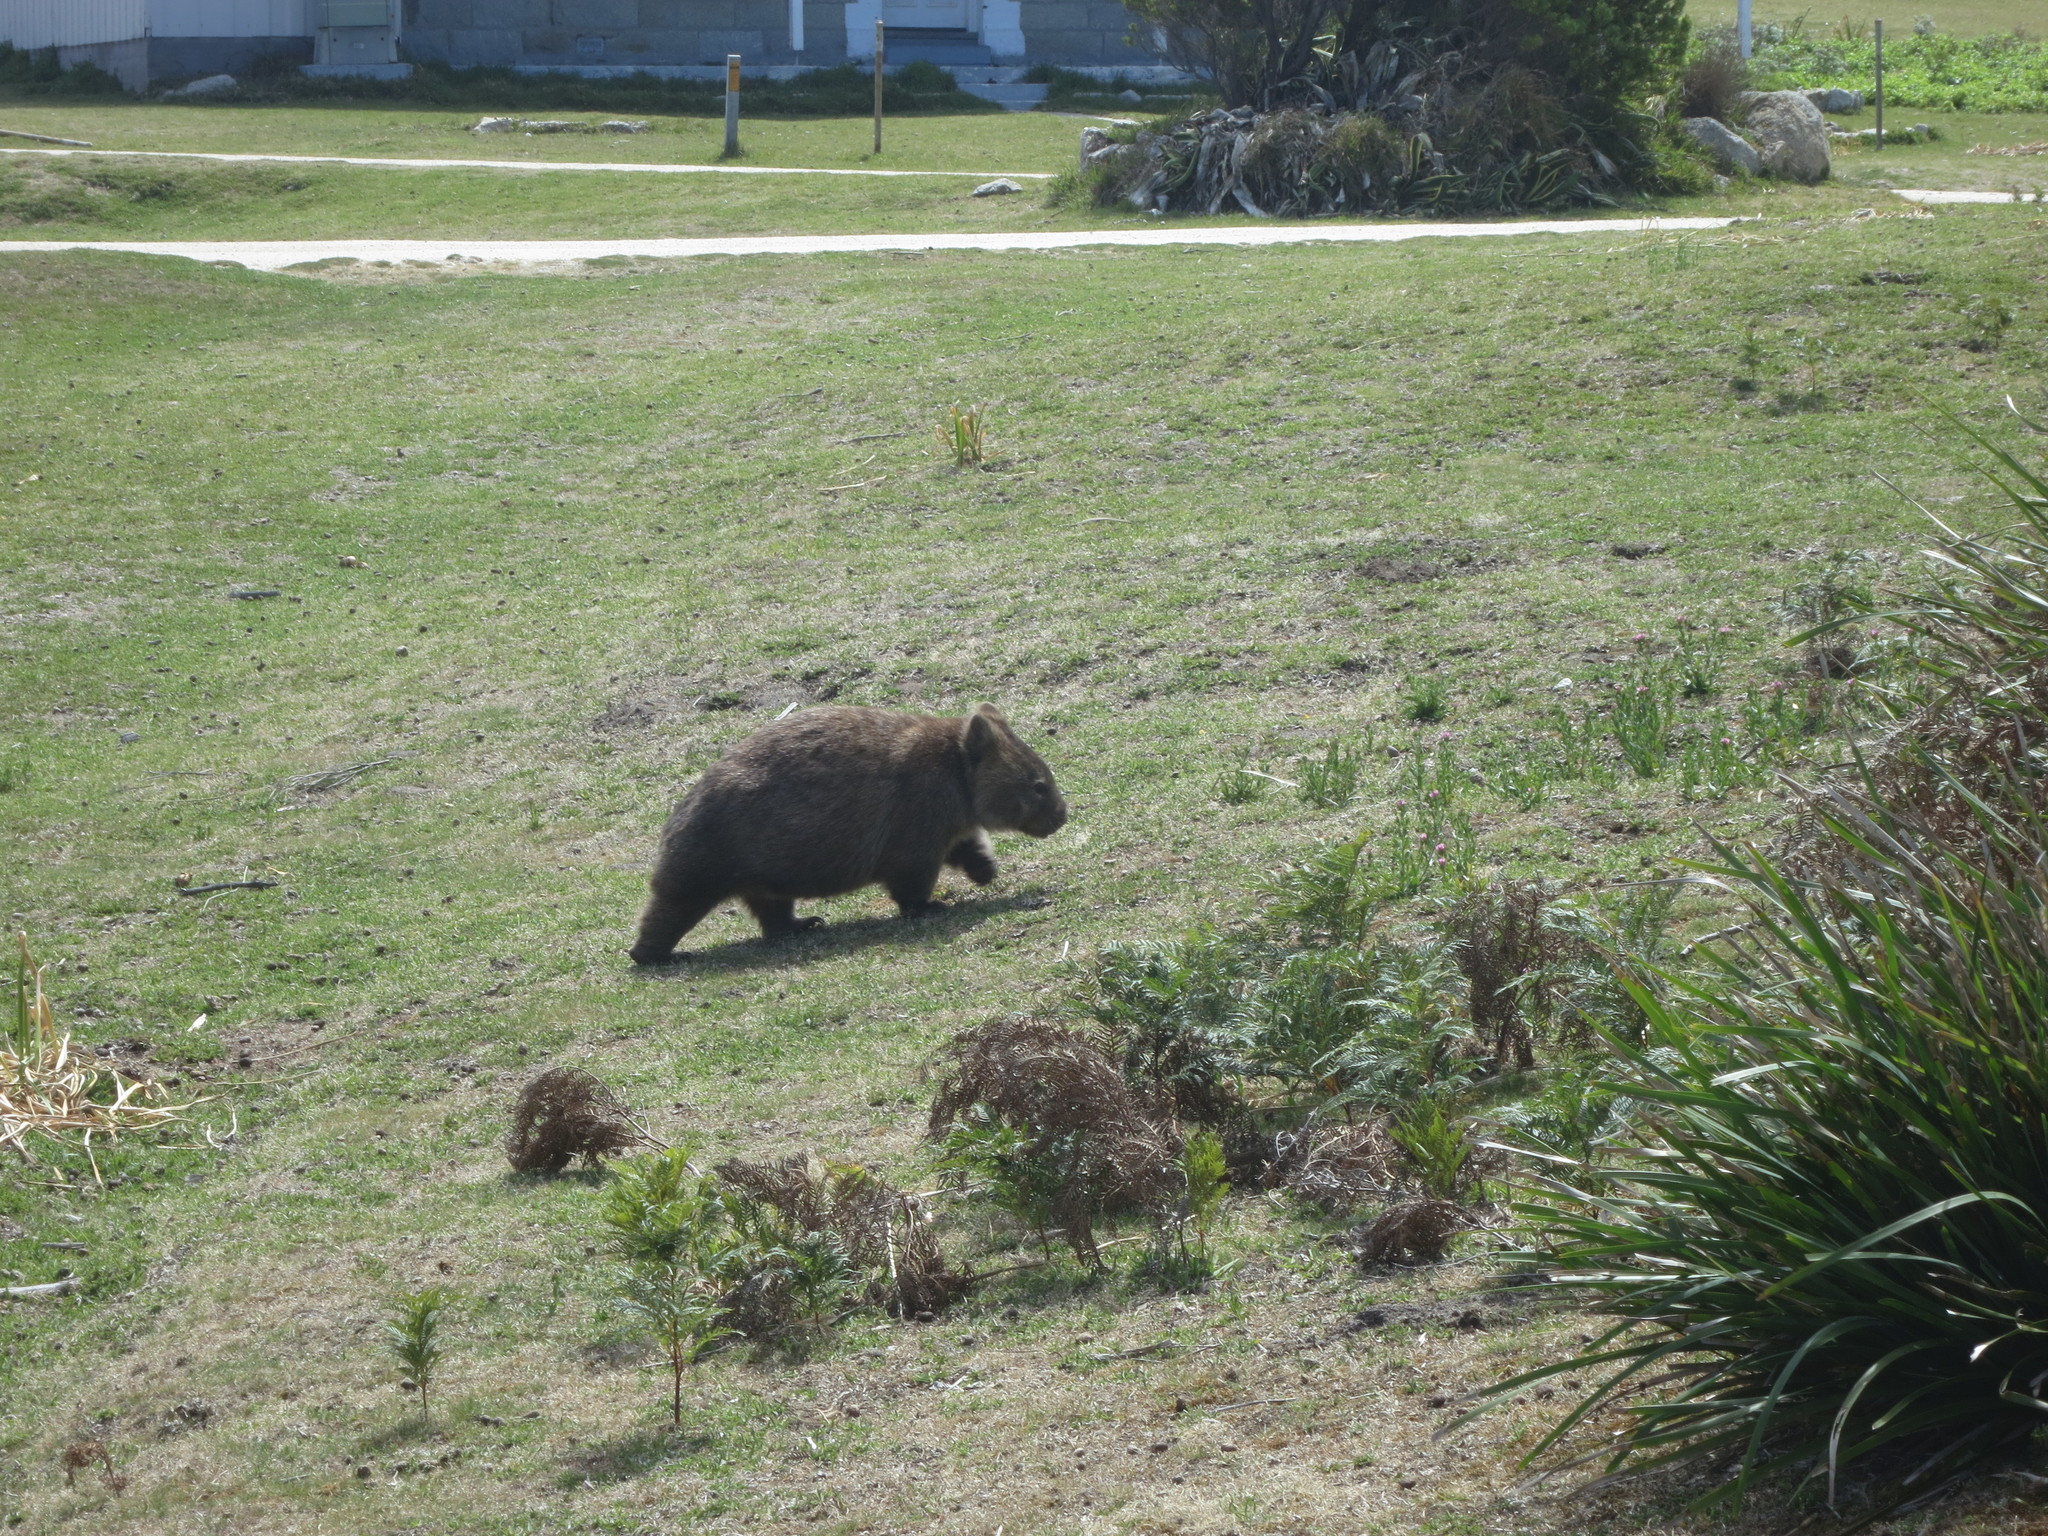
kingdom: Animalia
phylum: Chordata
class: Mammalia
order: Diprotodontia
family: Vombatidae
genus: Vombatus
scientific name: Vombatus ursinus
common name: Common wombat
